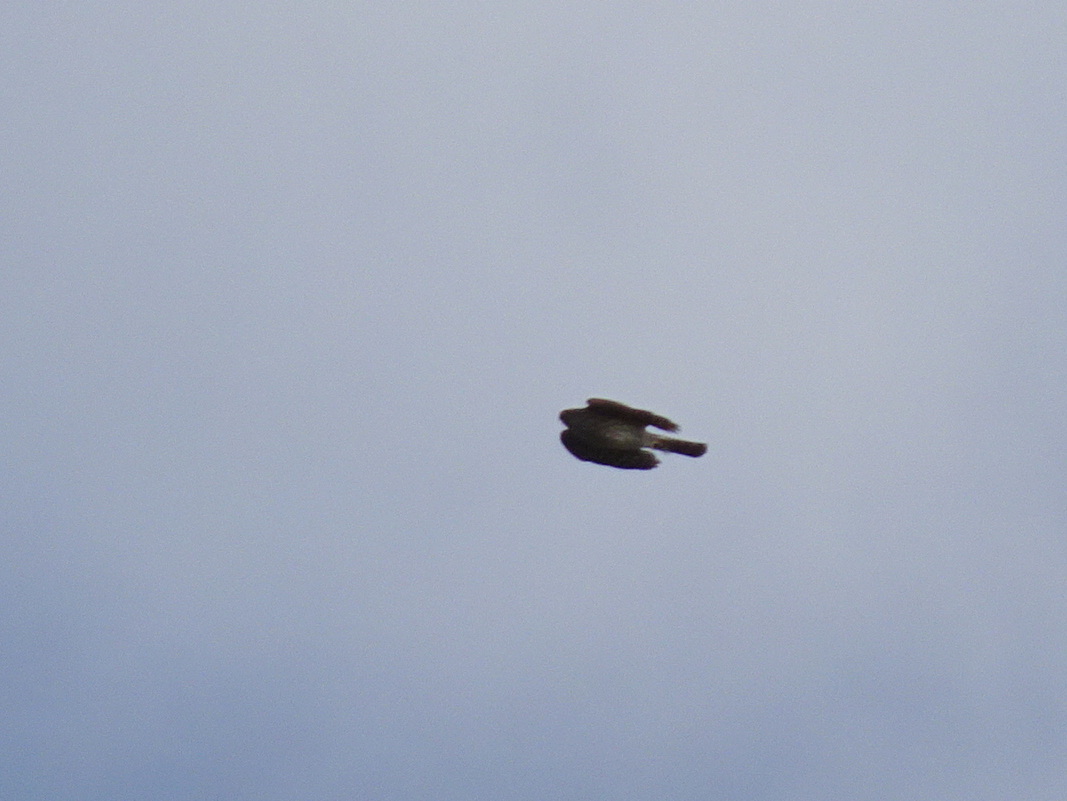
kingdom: Animalia
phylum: Chordata
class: Aves
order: Accipitriformes
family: Accipitridae
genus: Accipiter
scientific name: Accipiter cooperii
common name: Cooper's hawk
